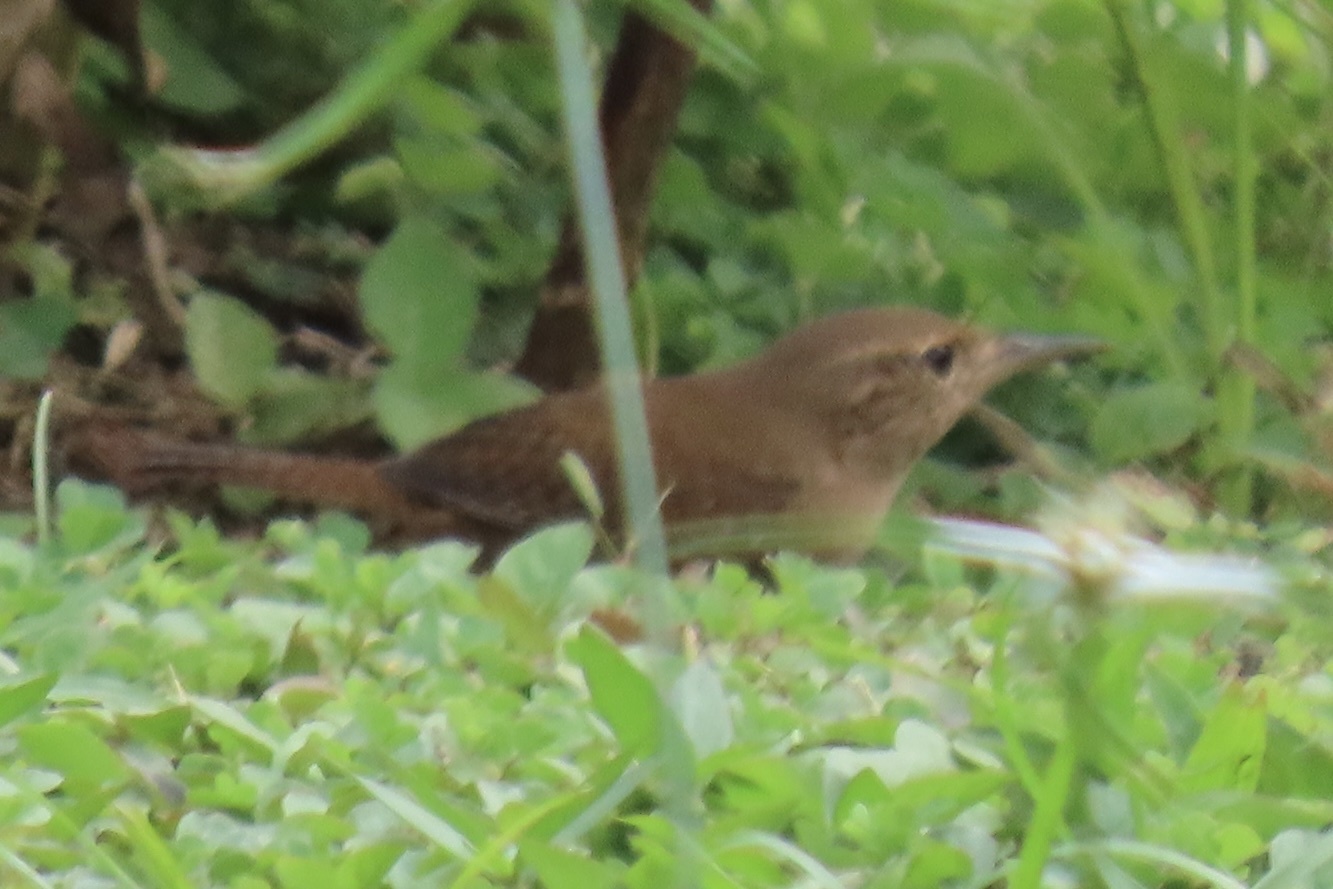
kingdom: Animalia
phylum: Chordata
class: Aves
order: Passeriformes
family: Troglodytidae
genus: Troglodytes
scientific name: Troglodytes aedon
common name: House wren
